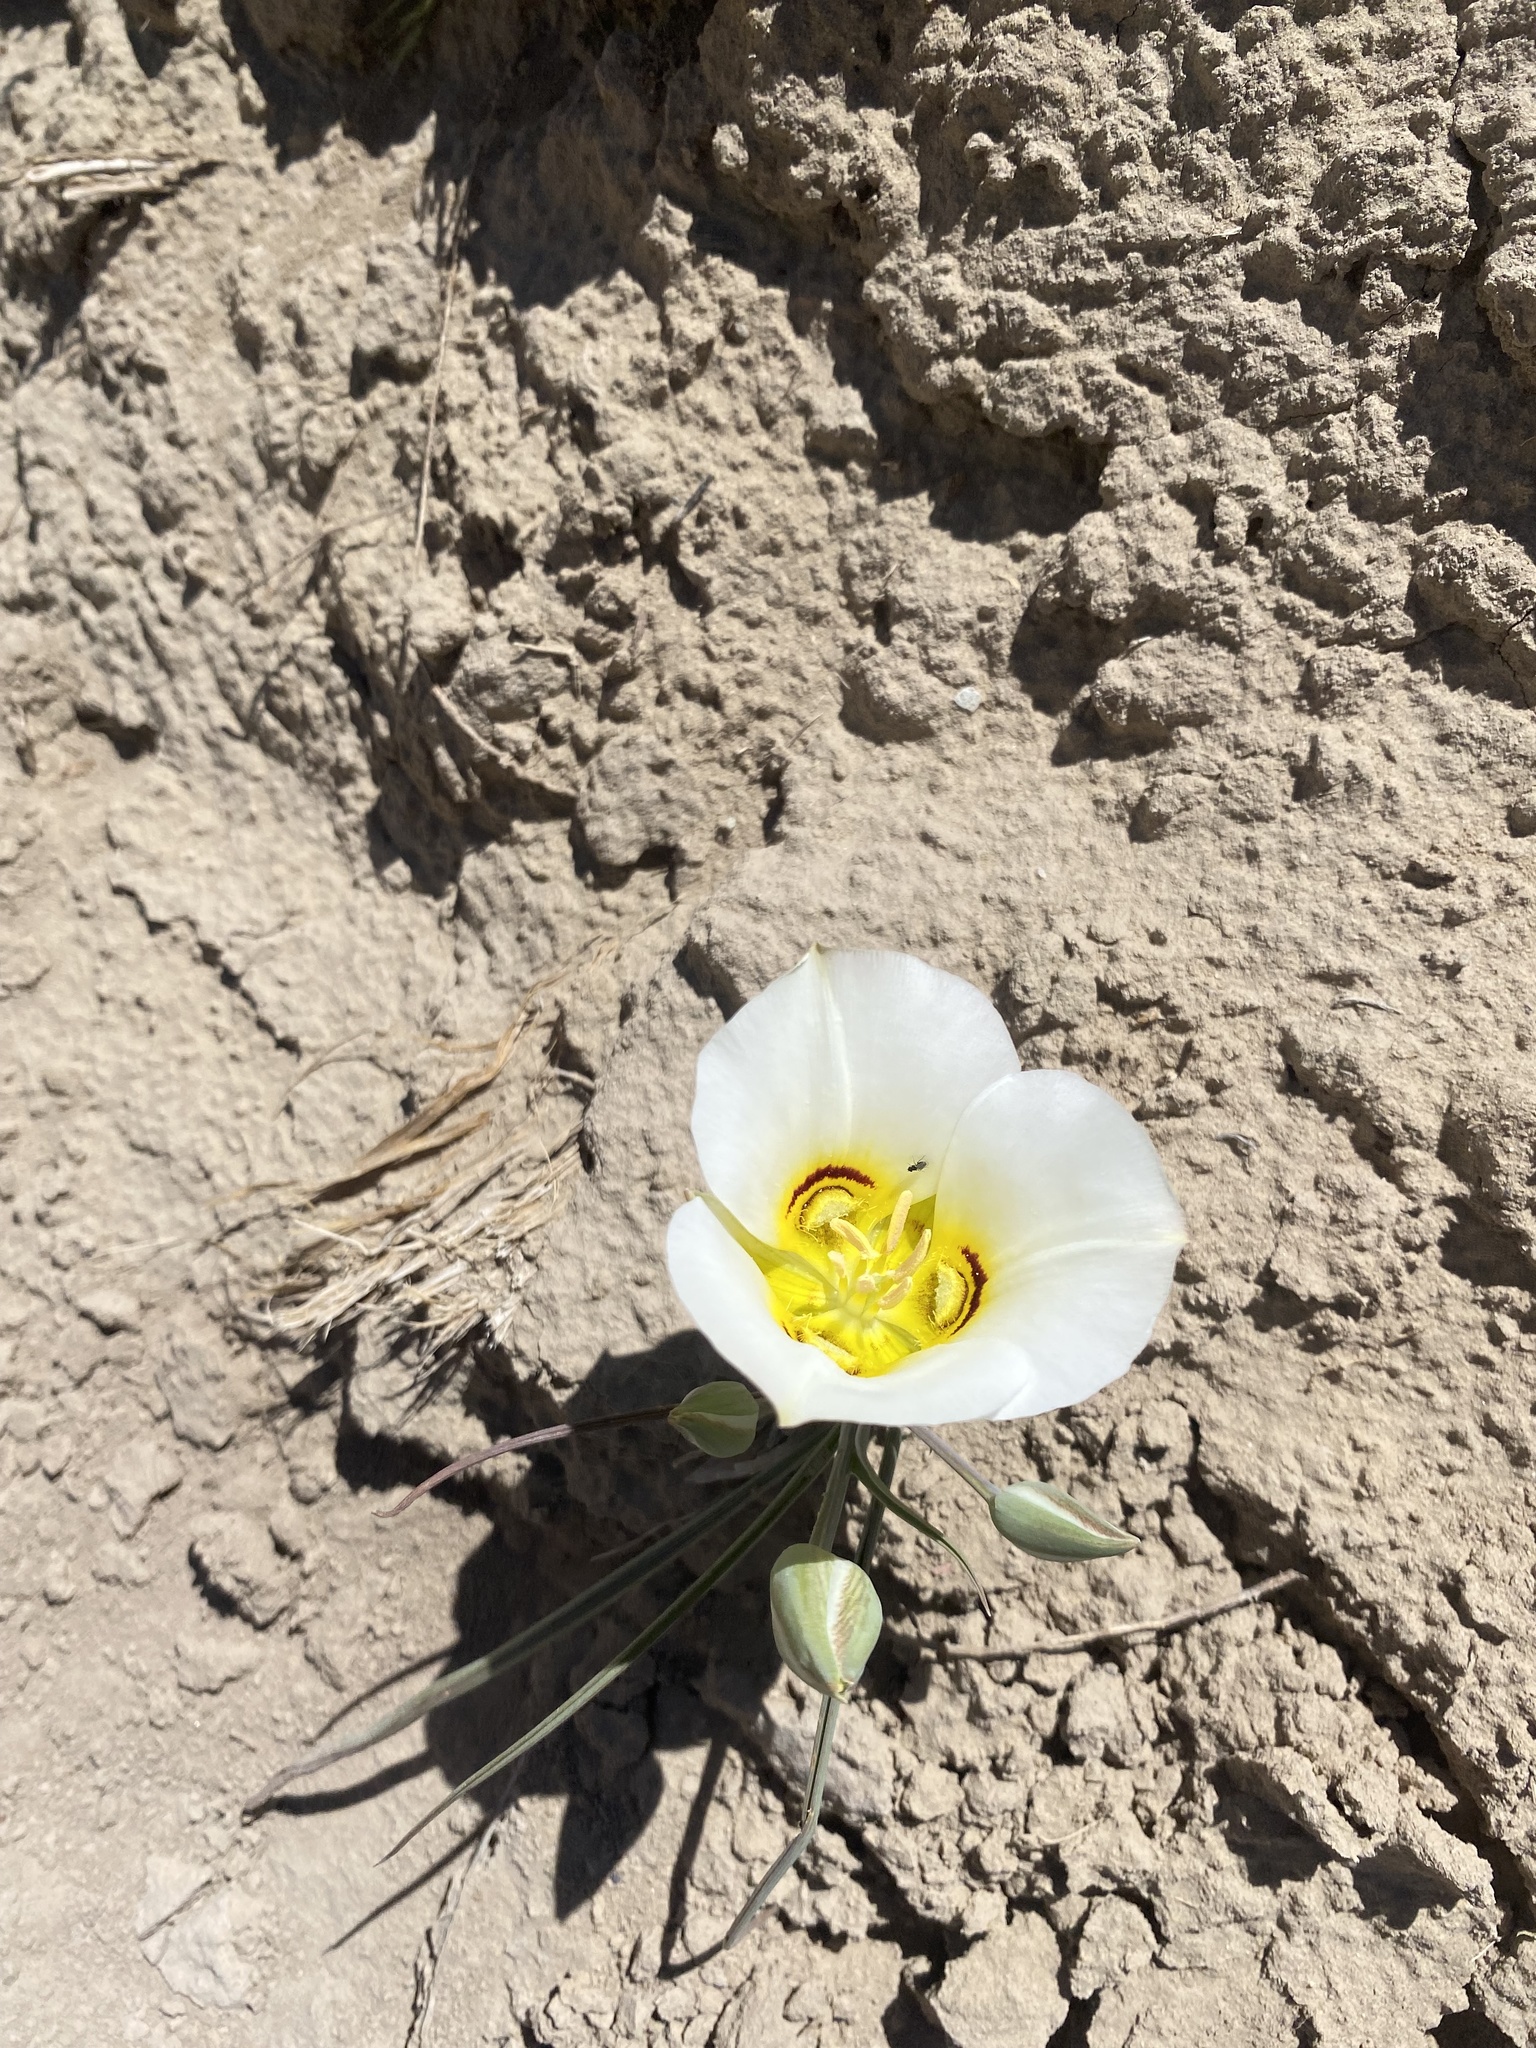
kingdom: Plantae
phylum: Tracheophyta
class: Liliopsida
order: Liliales
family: Liliaceae
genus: Calochortus
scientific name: Calochortus nuttallii
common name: Sego-lily
